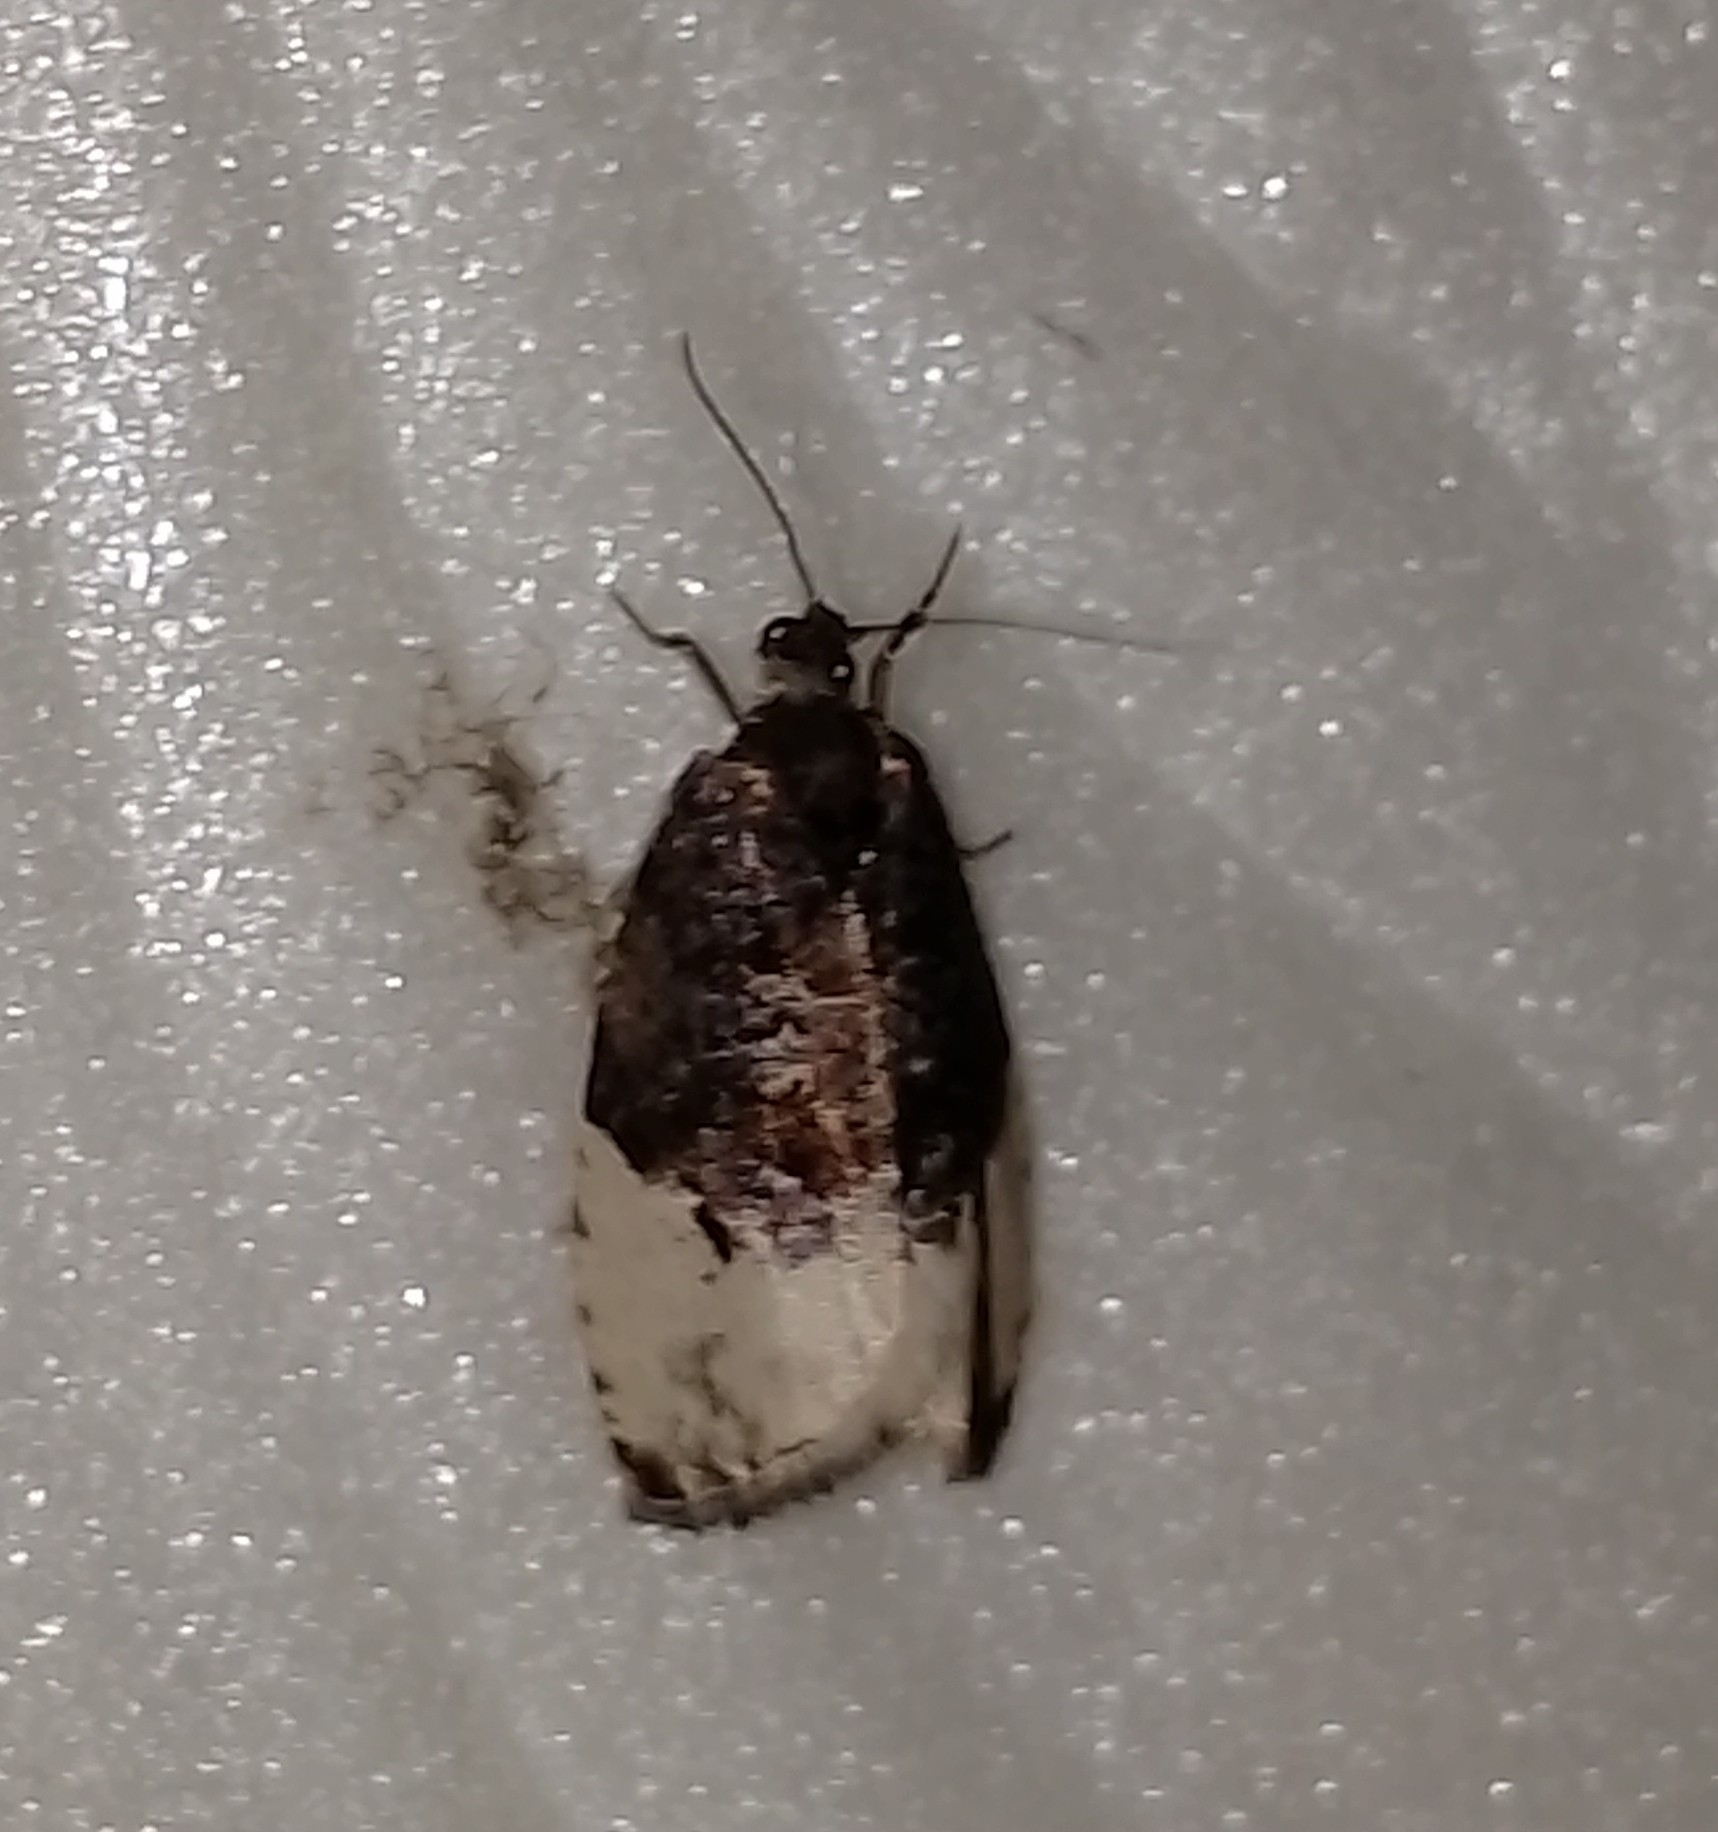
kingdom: Animalia
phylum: Arthropoda
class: Insecta
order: Lepidoptera
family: Tortricidae
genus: Hedya
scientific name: Hedya pruniana
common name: Plum tortrix
